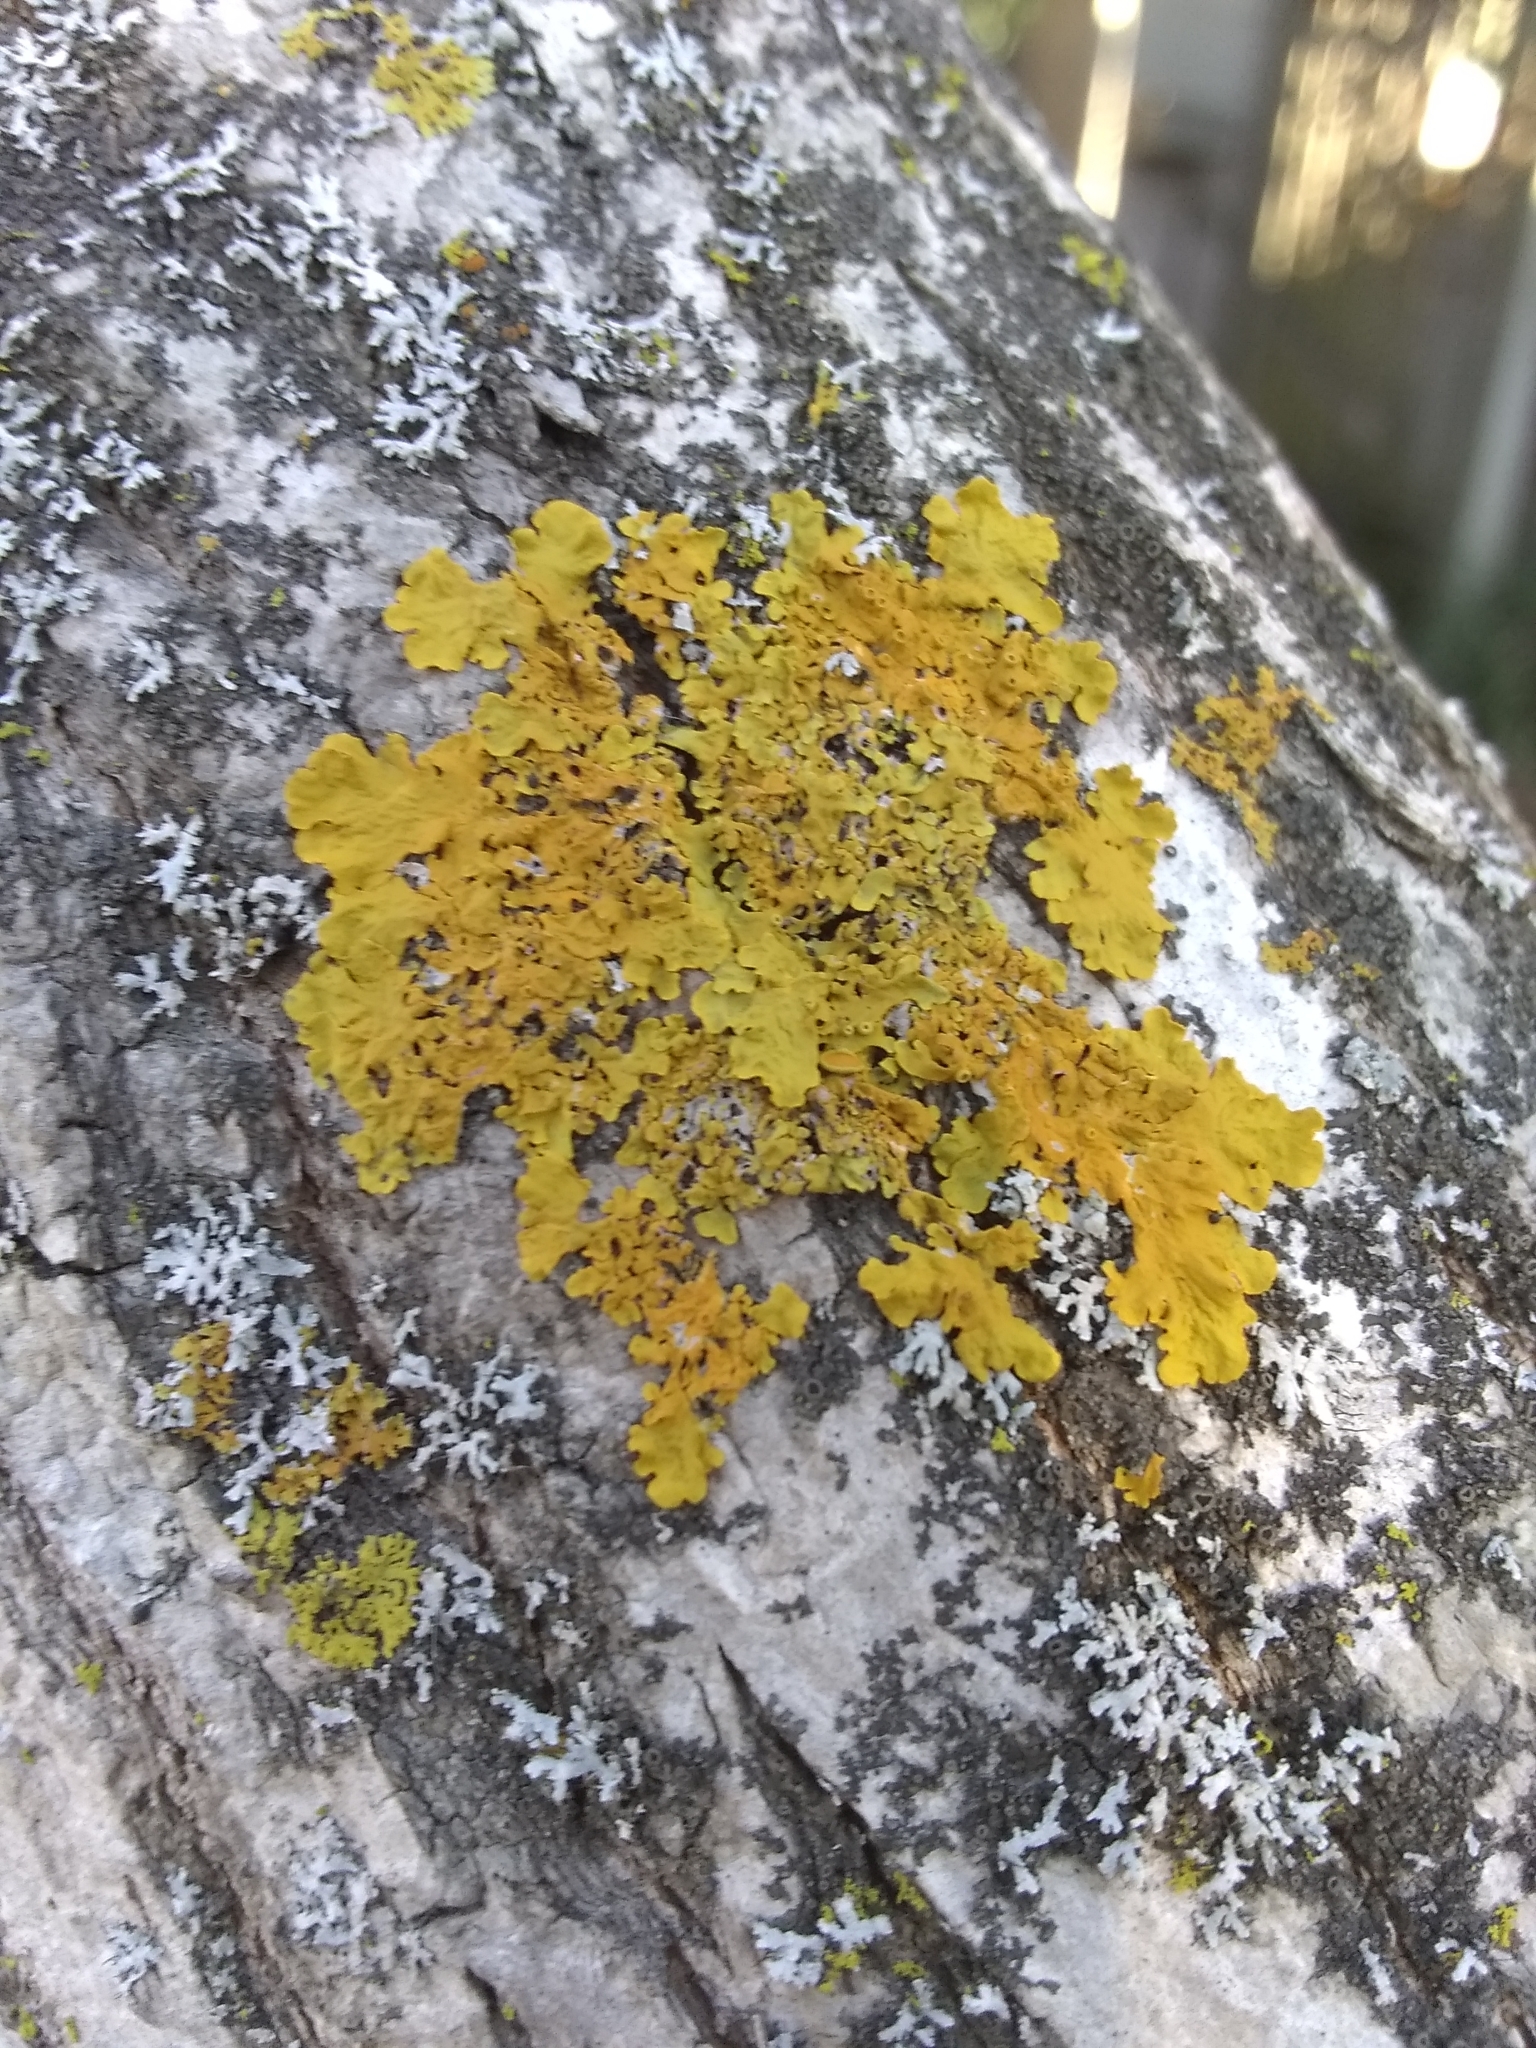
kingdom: Fungi
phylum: Ascomycota
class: Lecanoromycetes
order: Teloschistales
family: Teloschistaceae
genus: Xanthoria
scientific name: Xanthoria parietina
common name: Common orange lichen
